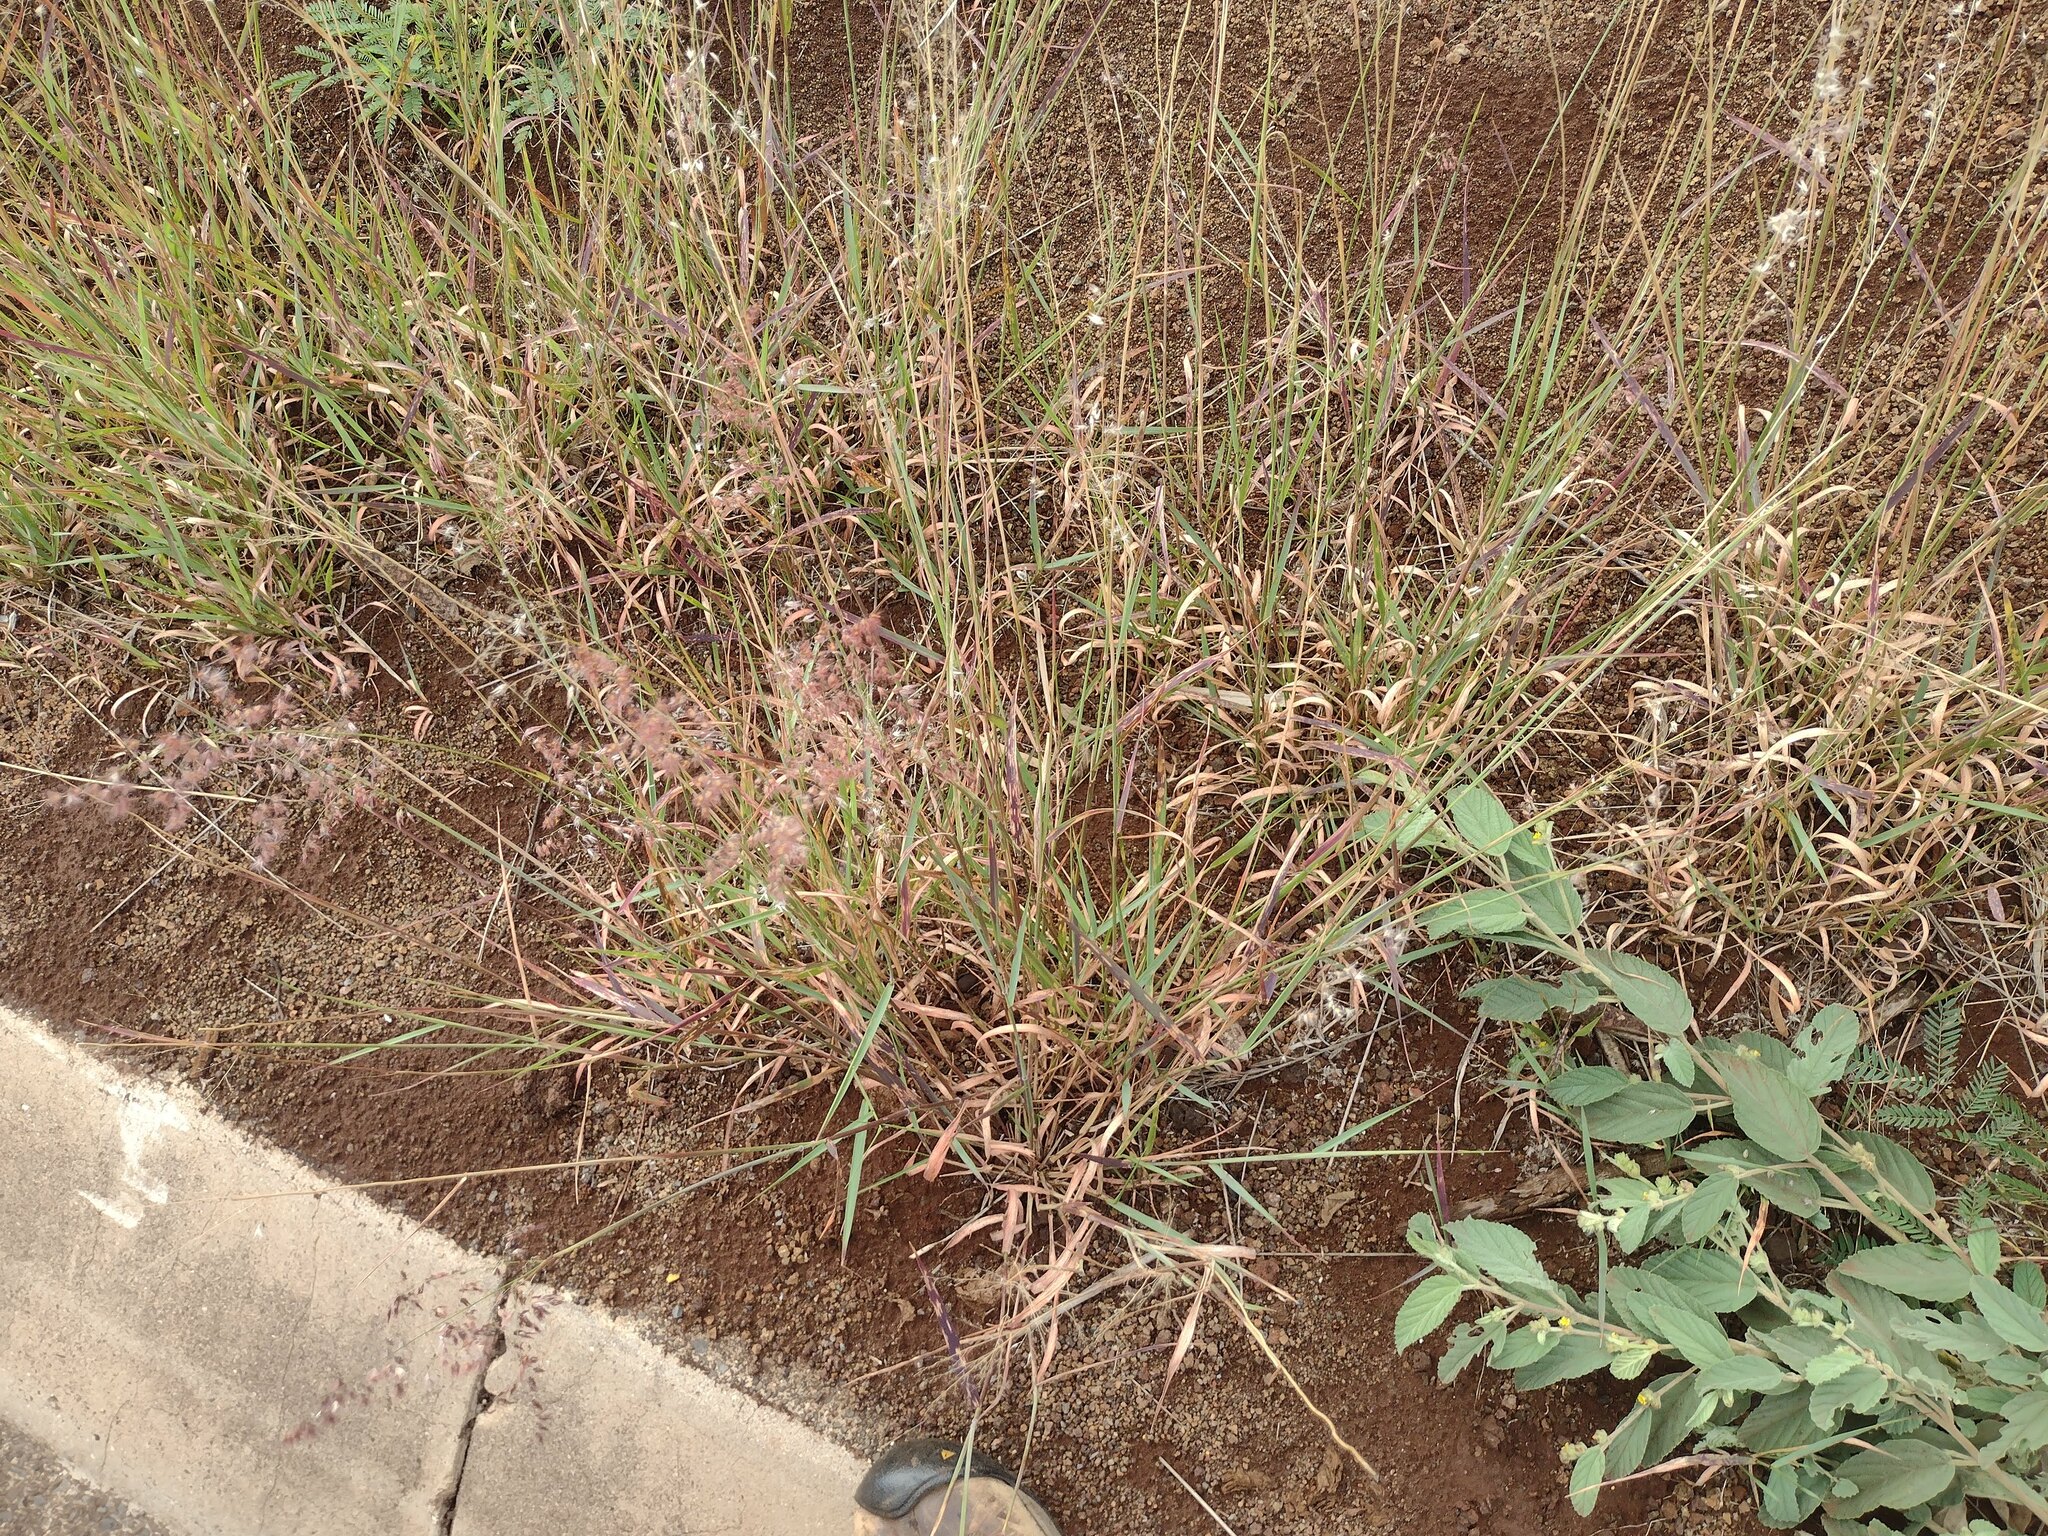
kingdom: Plantae
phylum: Tracheophyta
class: Liliopsida
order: Poales
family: Poaceae
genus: Melinis
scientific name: Melinis repens
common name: Rose natal grass
